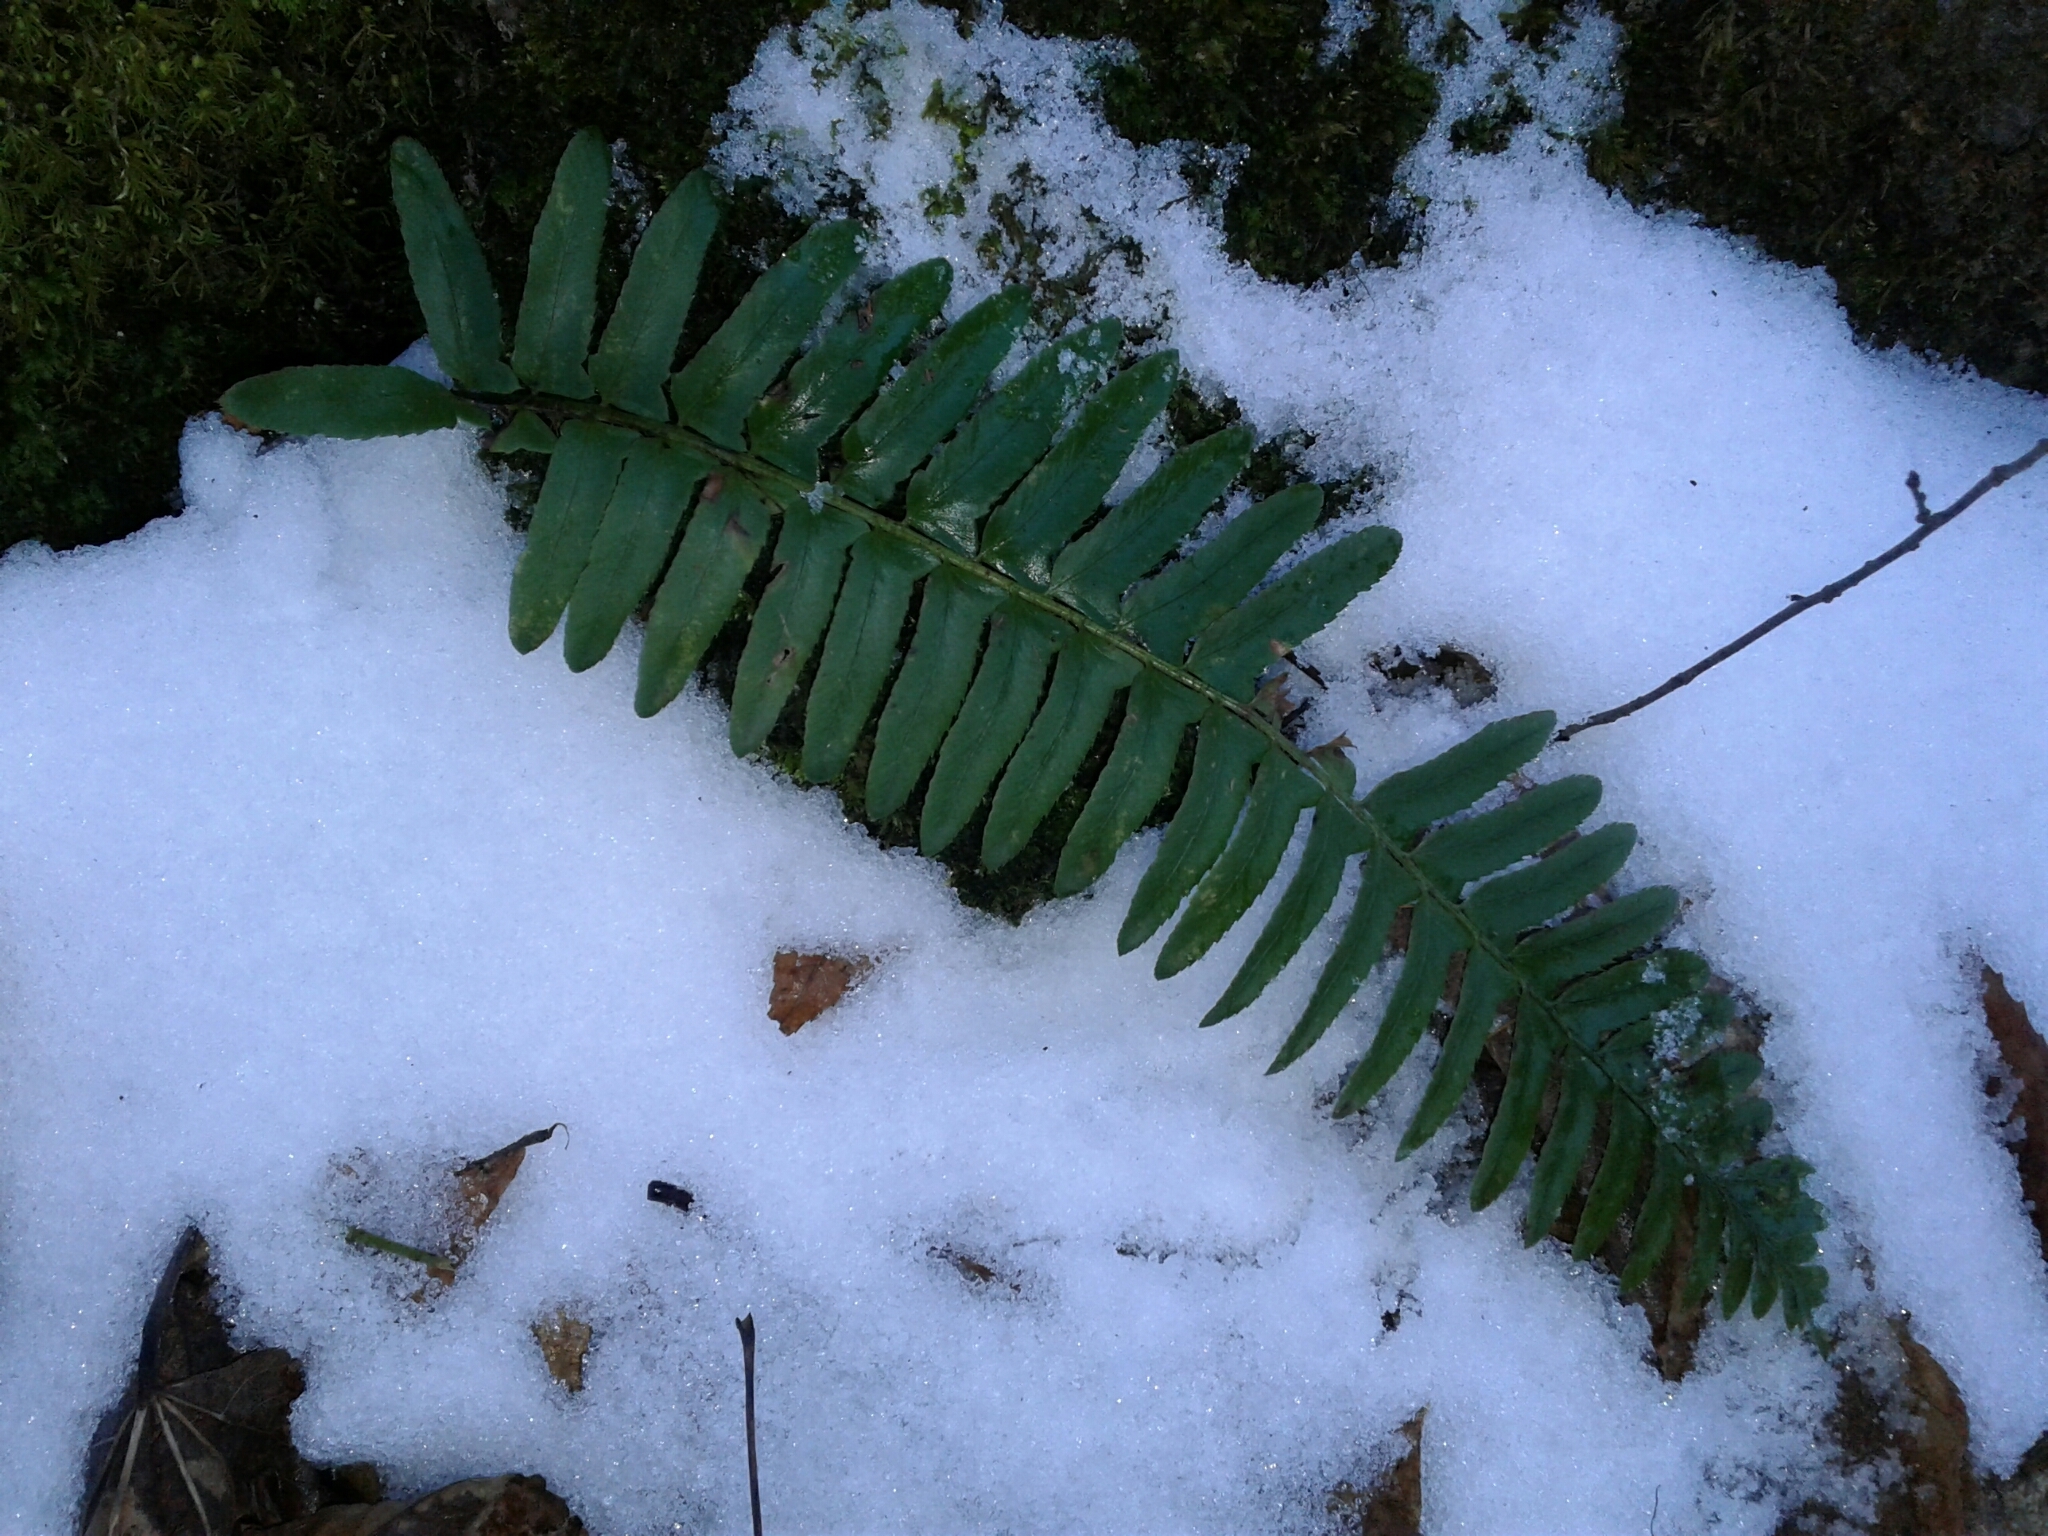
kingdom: Plantae
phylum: Tracheophyta
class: Polypodiopsida
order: Polypodiales
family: Dryopteridaceae
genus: Polystichum
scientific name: Polystichum acrostichoides
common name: Christmas fern
